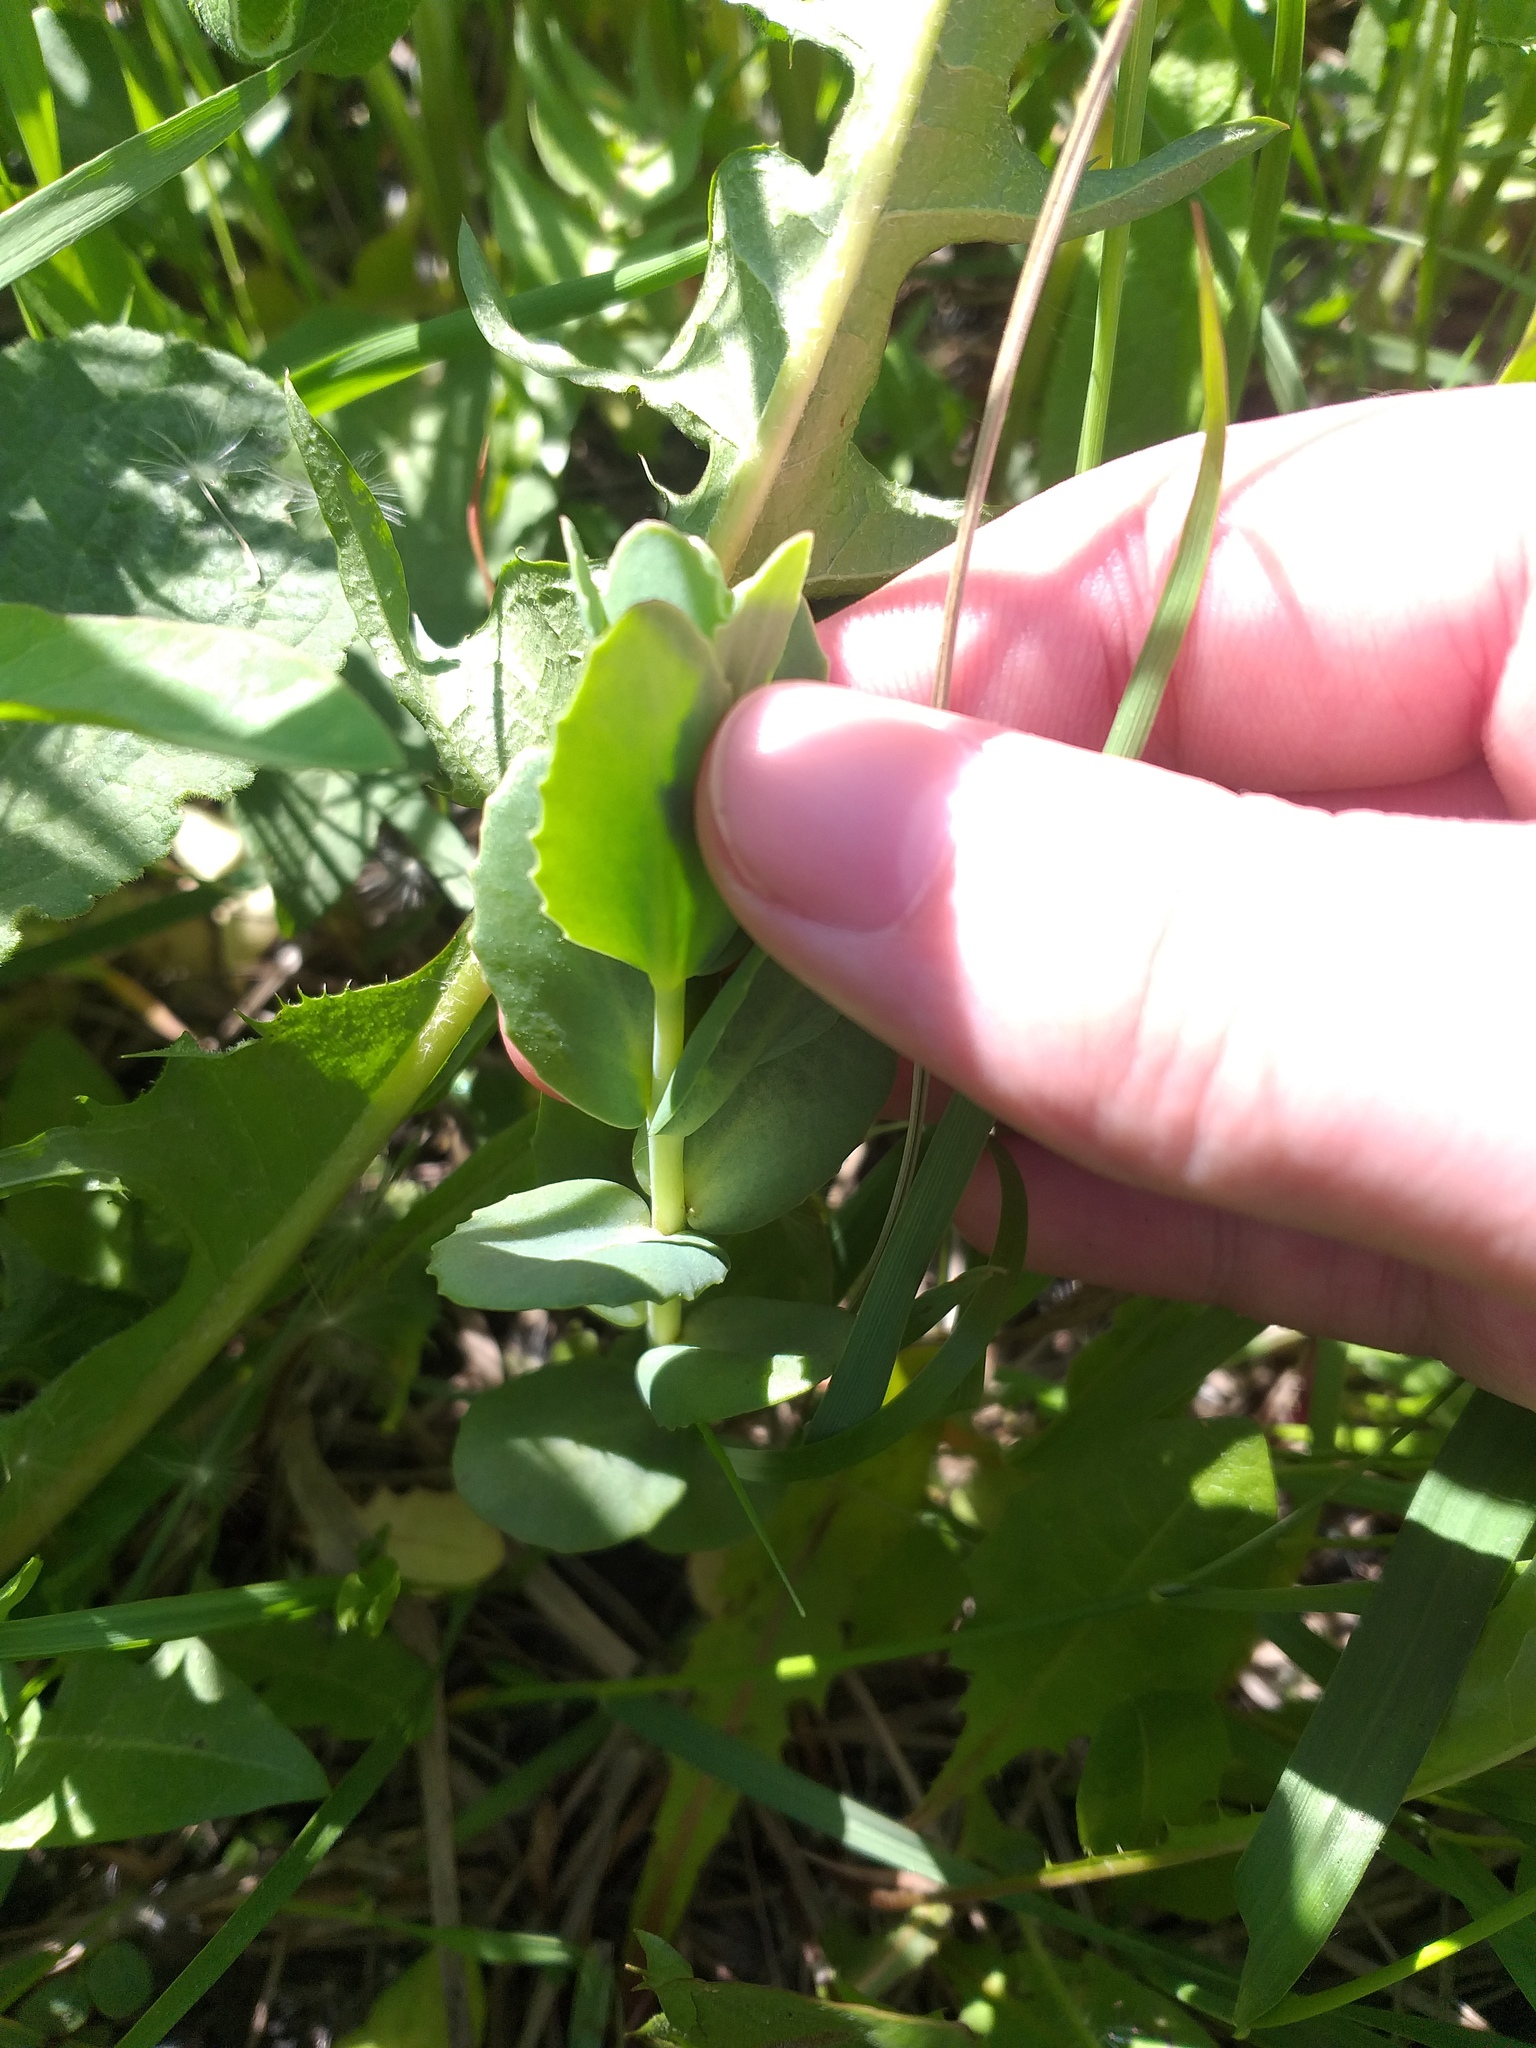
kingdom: Plantae
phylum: Tracheophyta
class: Magnoliopsida
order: Saxifragales
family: Crassulaceae
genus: Hylotelephium
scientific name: Hylotelephium maximum
